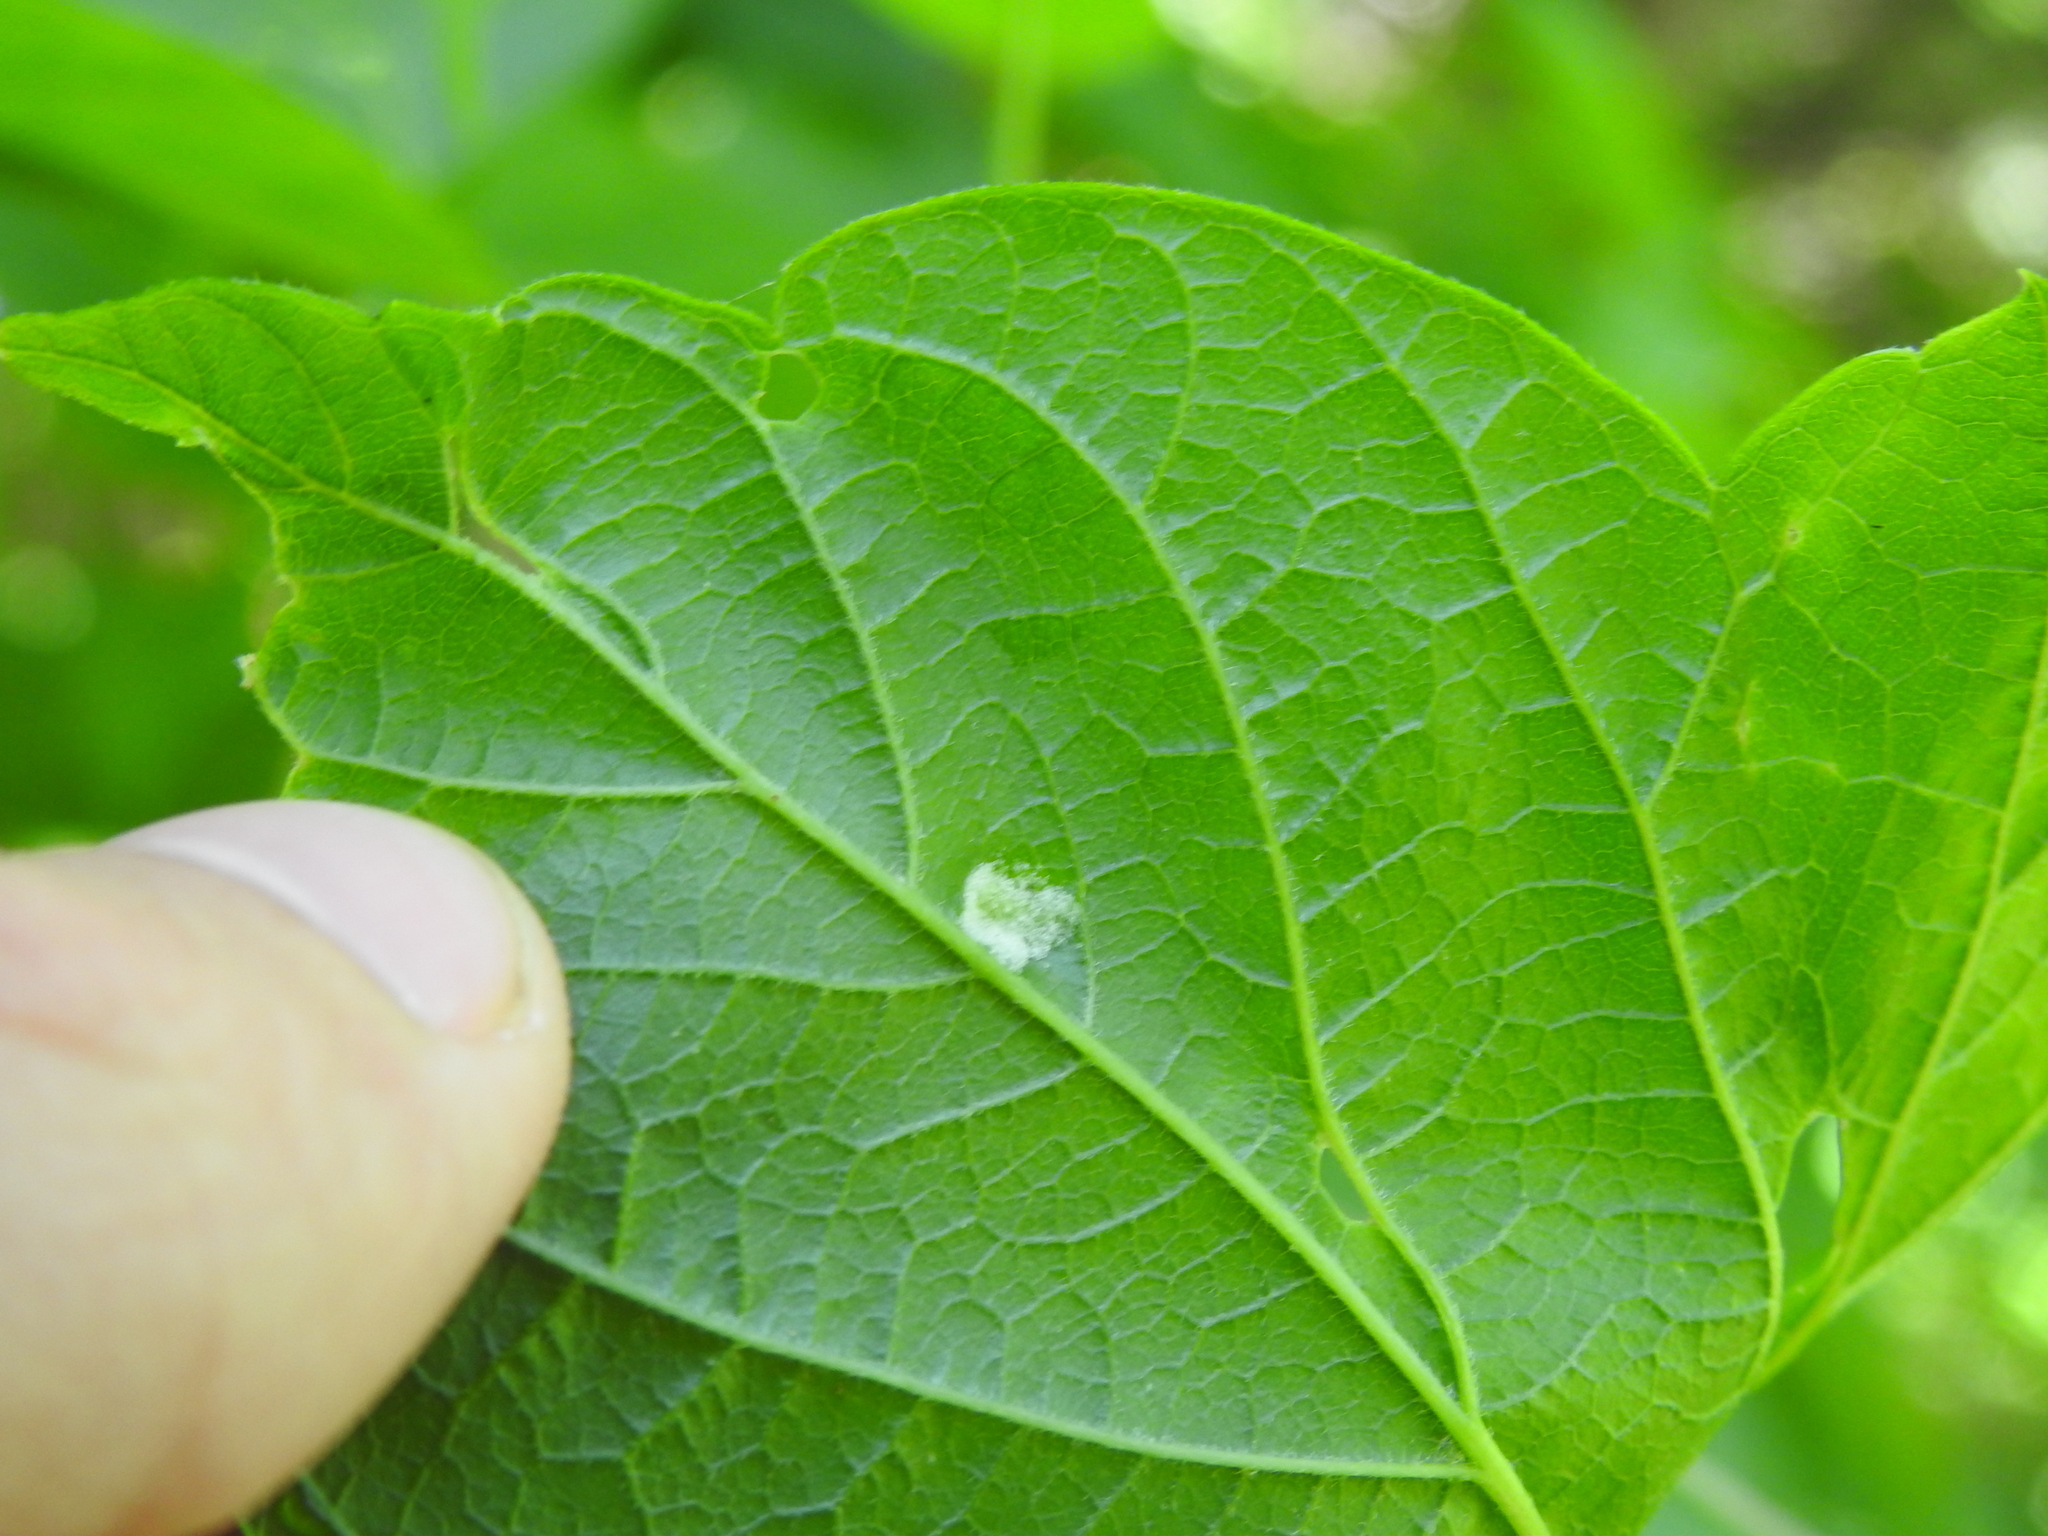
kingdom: Animalia
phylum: Arthropoda
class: Arachnida
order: Trombidiformes
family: Eriophyidae
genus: Aceria
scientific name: Aceria
